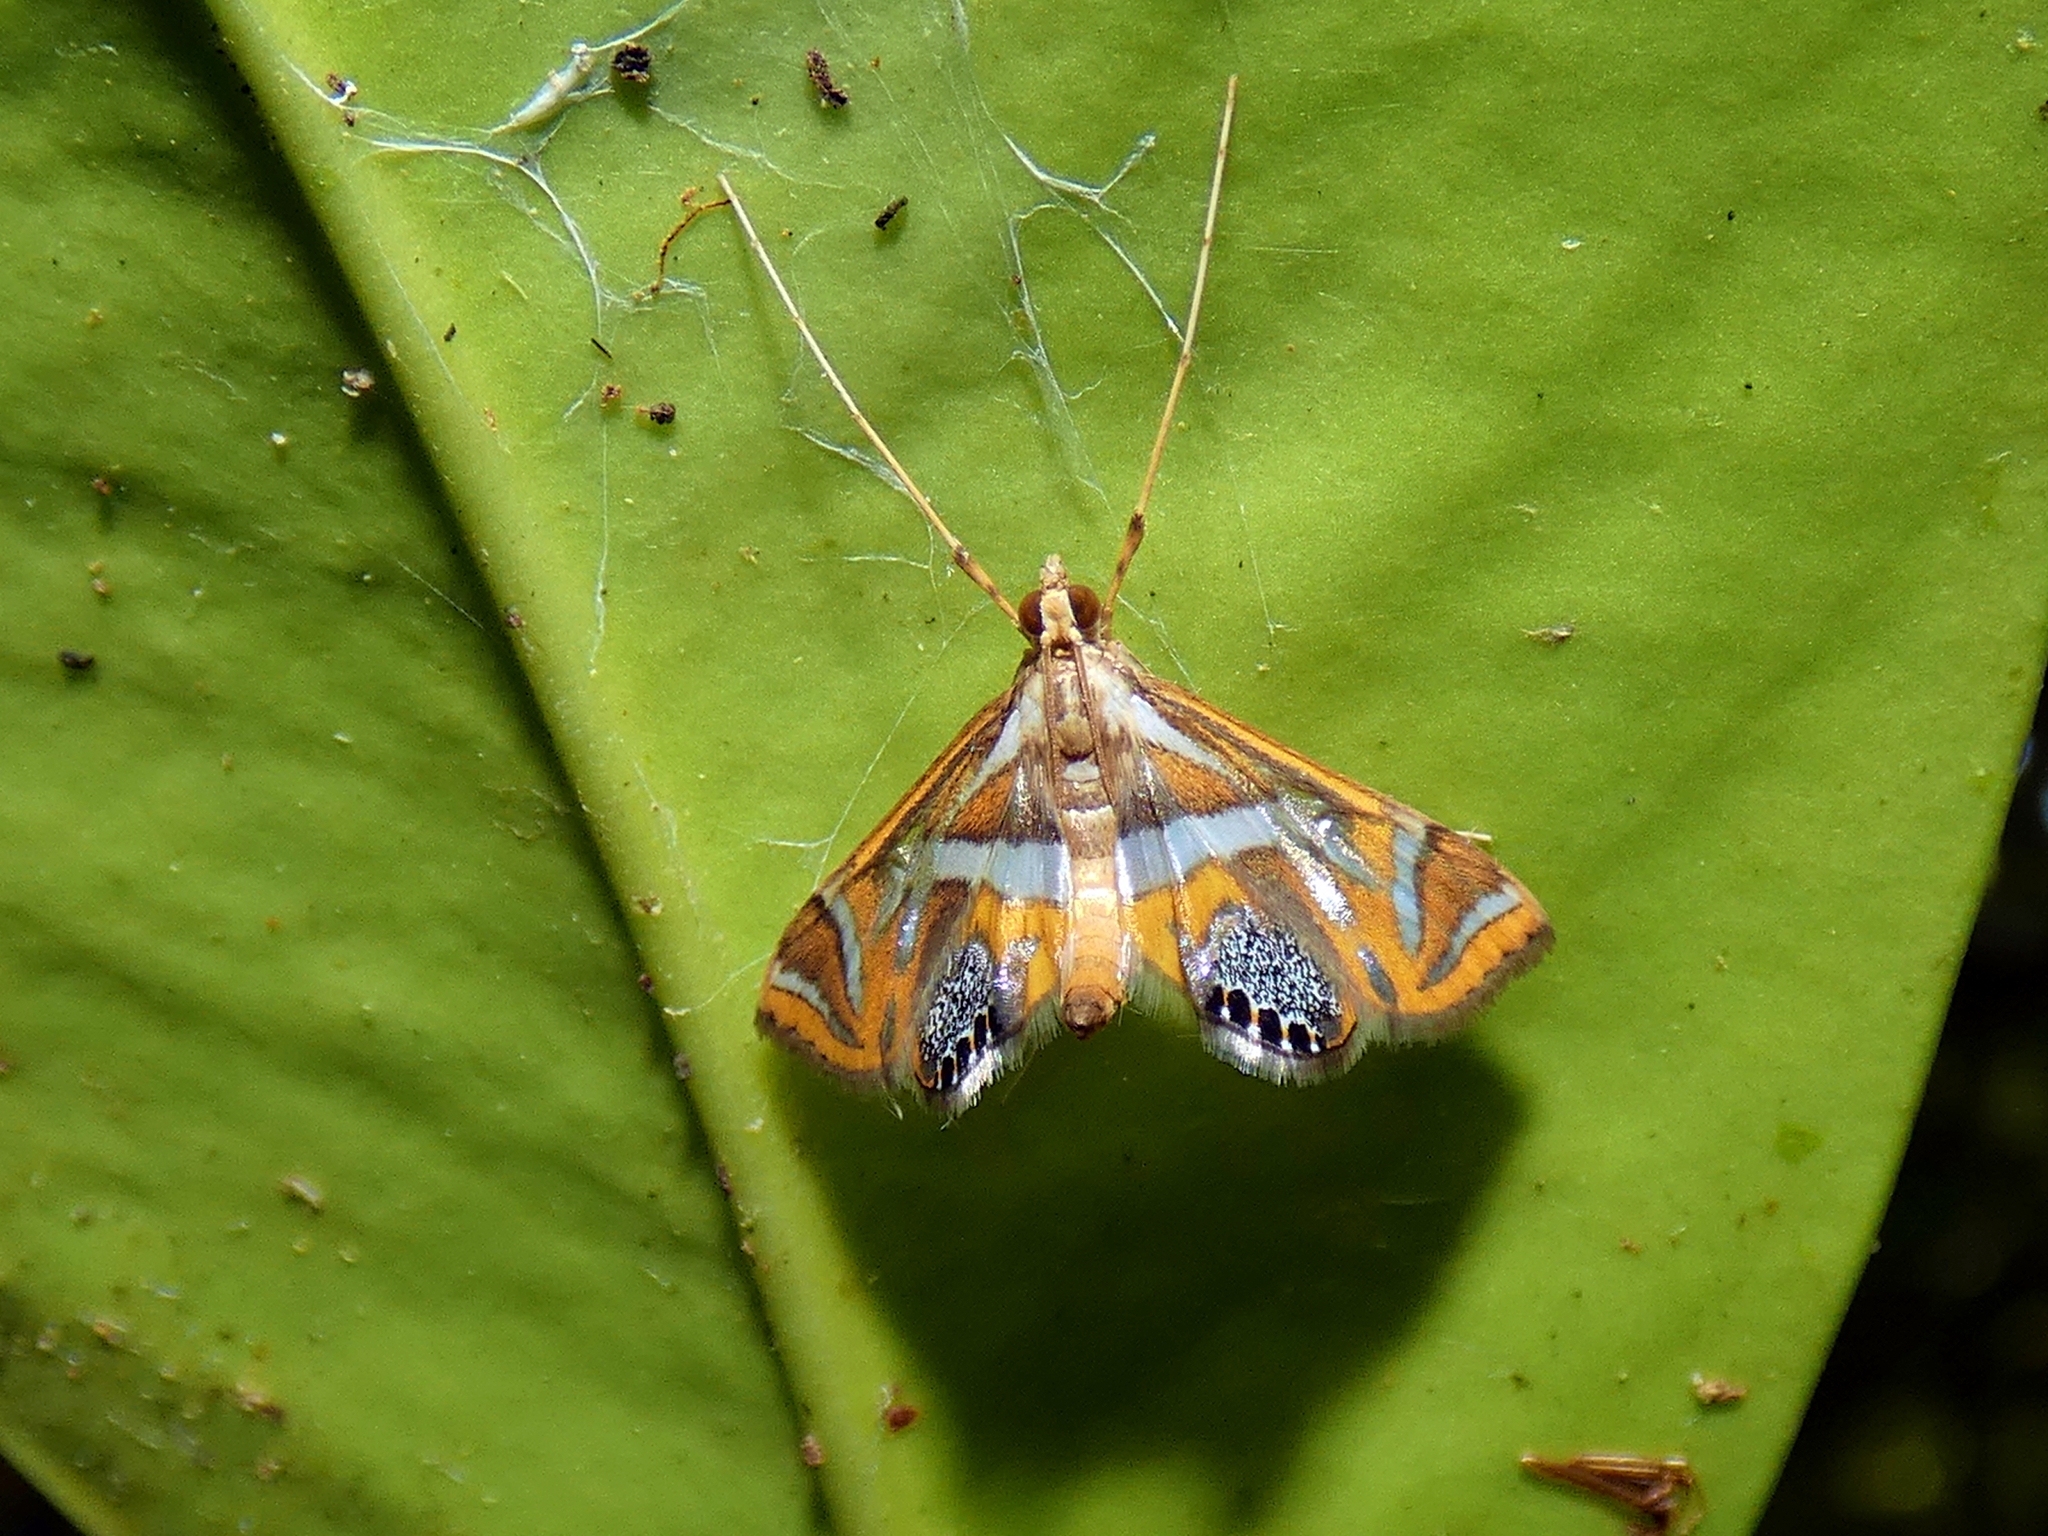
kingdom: Animalia
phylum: Arthropoda
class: Insecta
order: Lepidoptera
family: Crambidae
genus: Margarosticha
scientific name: Margarosticha sphenotis
